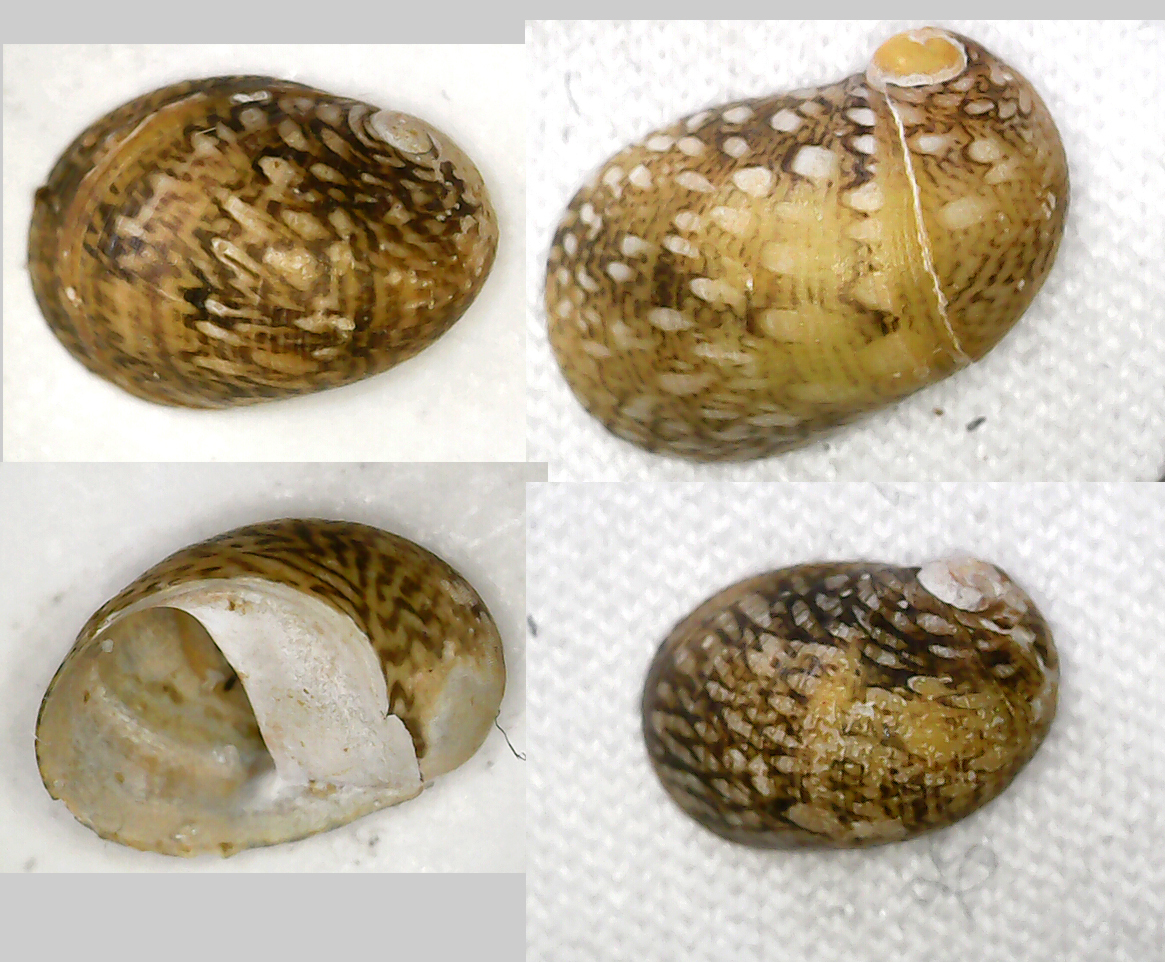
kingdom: Animalia
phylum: Mollusca
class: Gastropoda
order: Cycloneritida
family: Neritidae
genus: Theodoxus
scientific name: Theodoxus fluviatilis
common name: River nerite
